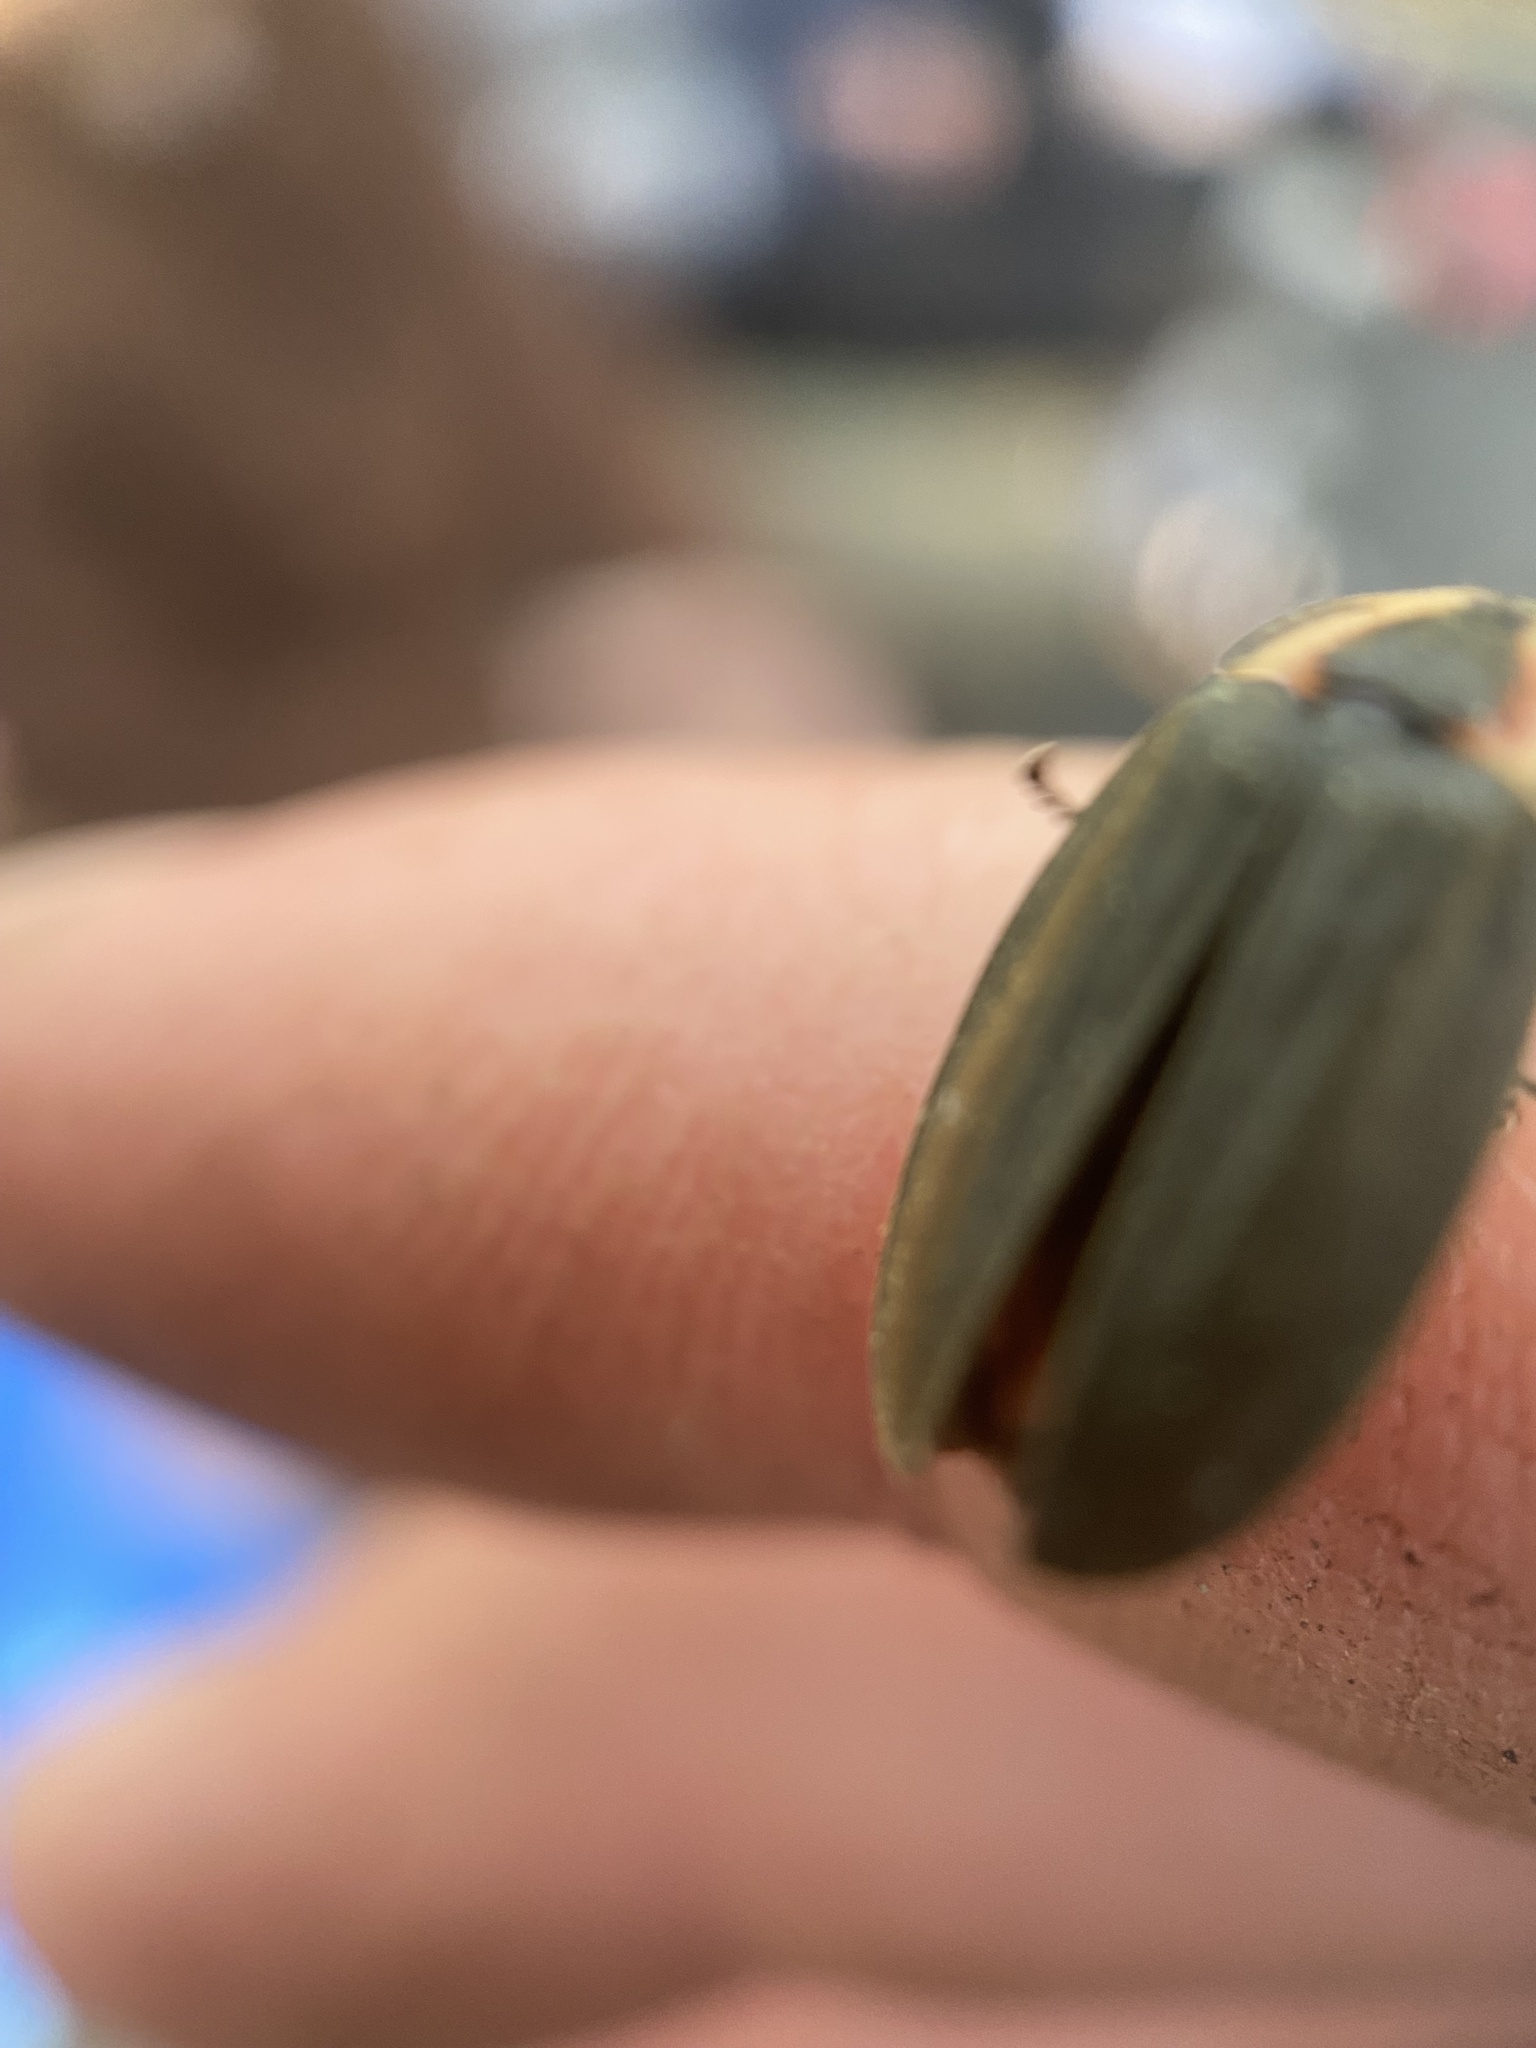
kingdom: Animalia
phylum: Arthropoda
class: Insecta
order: Coleoptera
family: Lampyridae
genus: Photinus
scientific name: Photinus corrusca
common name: Winter firefly
